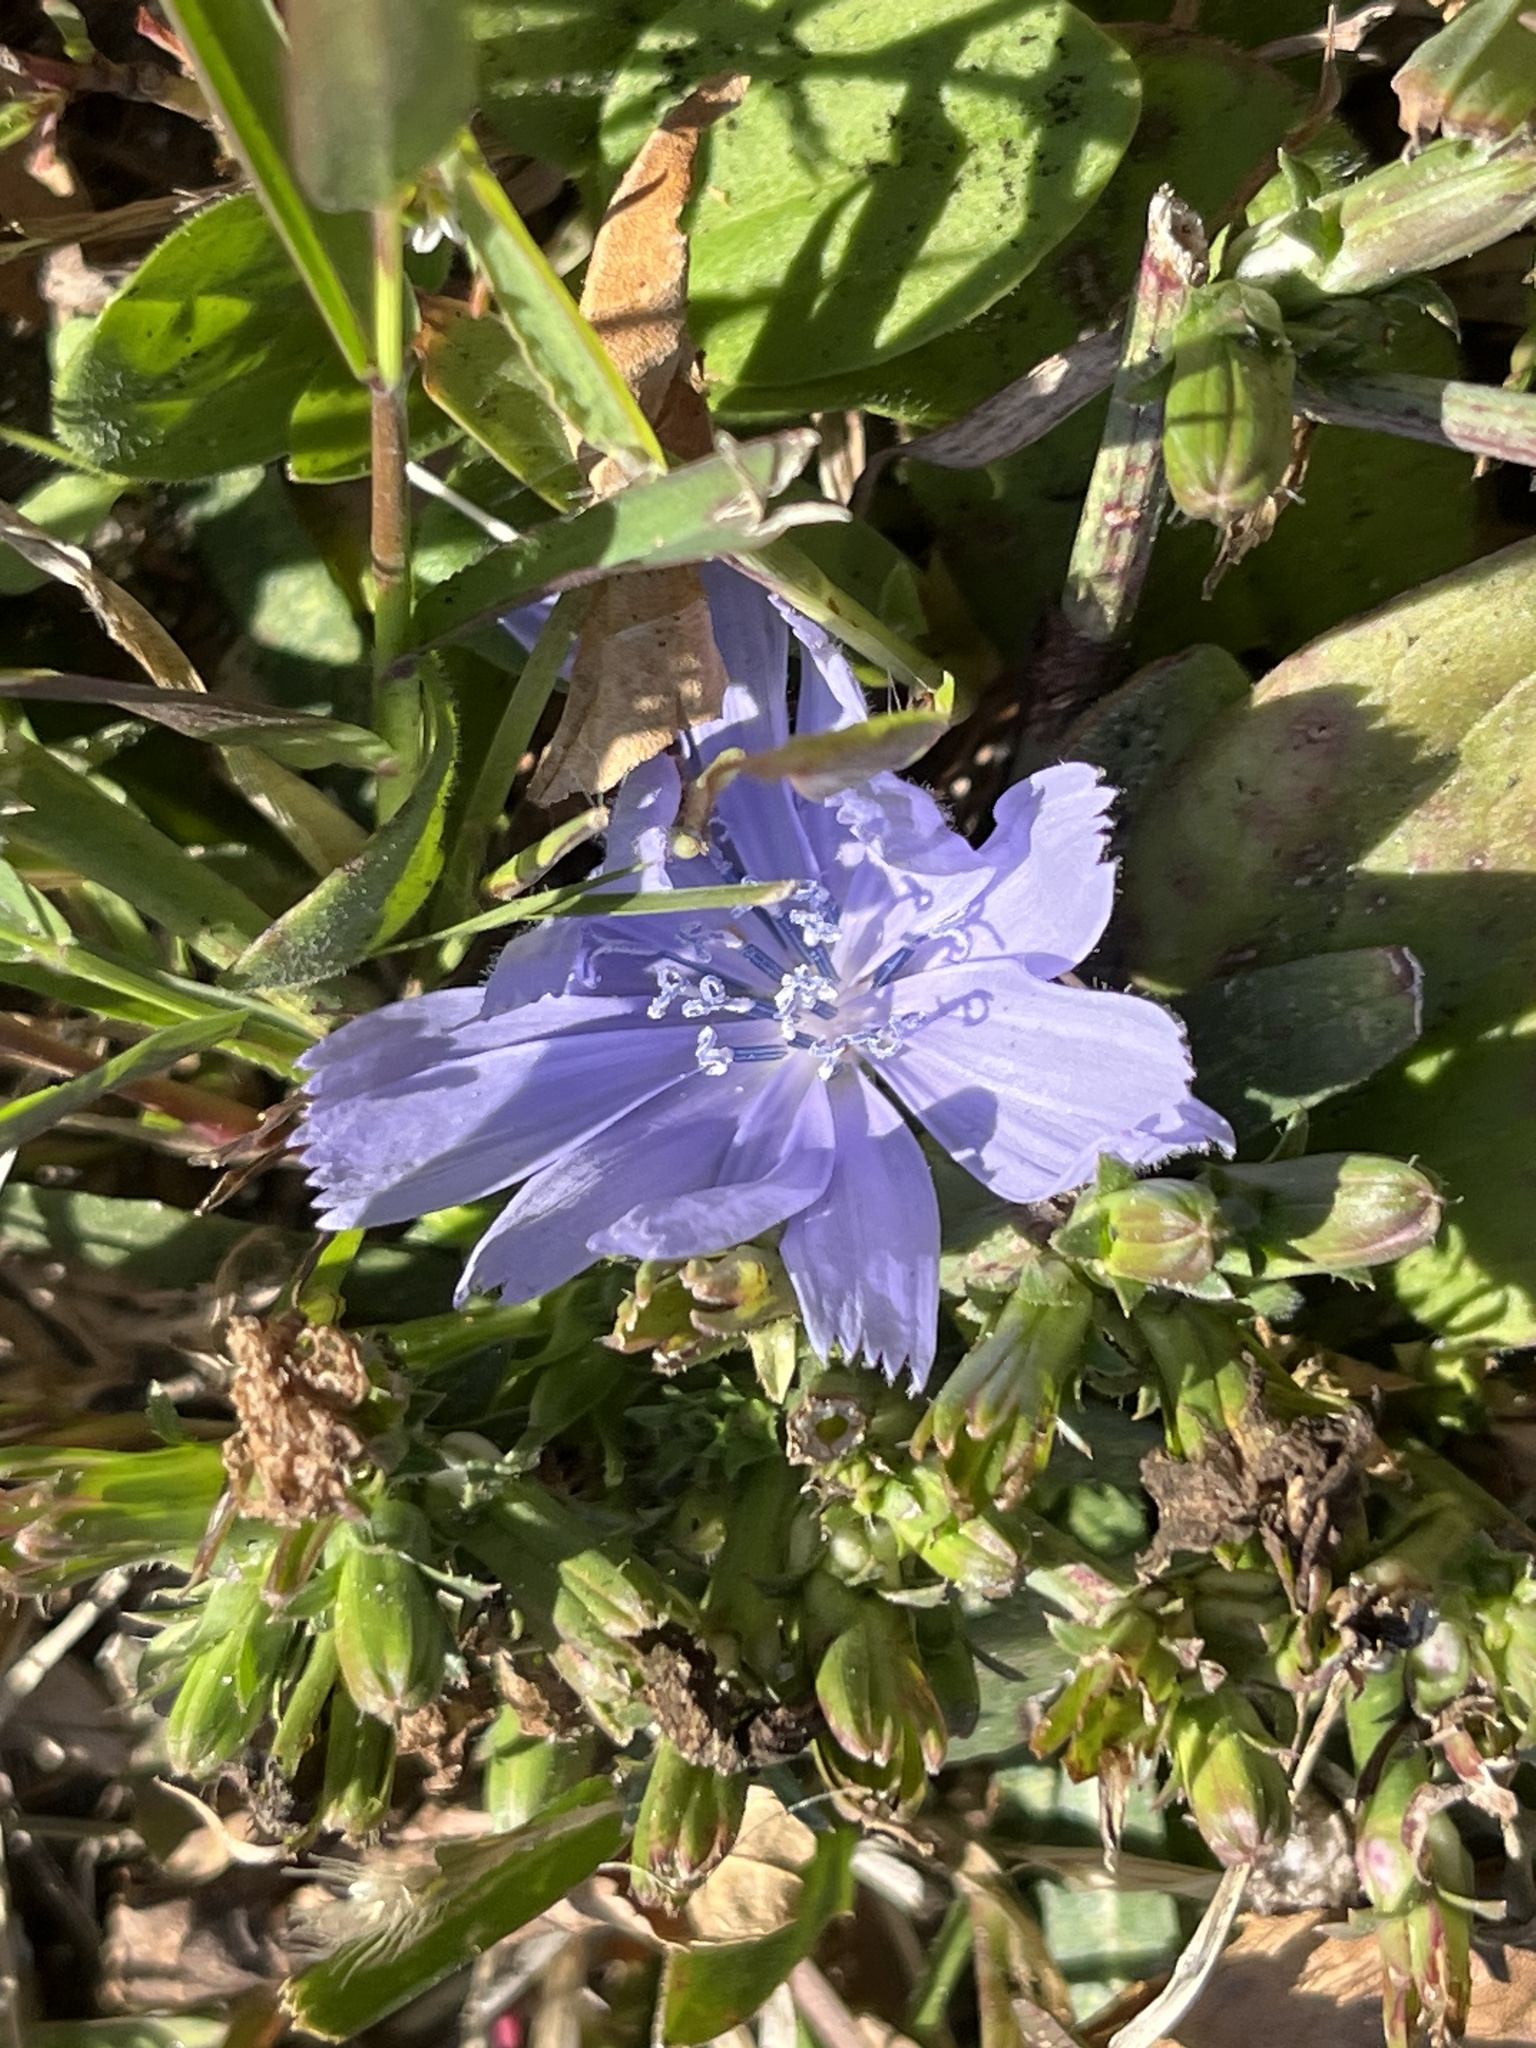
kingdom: Plantae
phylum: Tracheophyta
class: Magnoliopsida
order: Asterales
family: Asteraceae
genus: Cichorium
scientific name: Cichorium intybus
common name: Chicory
